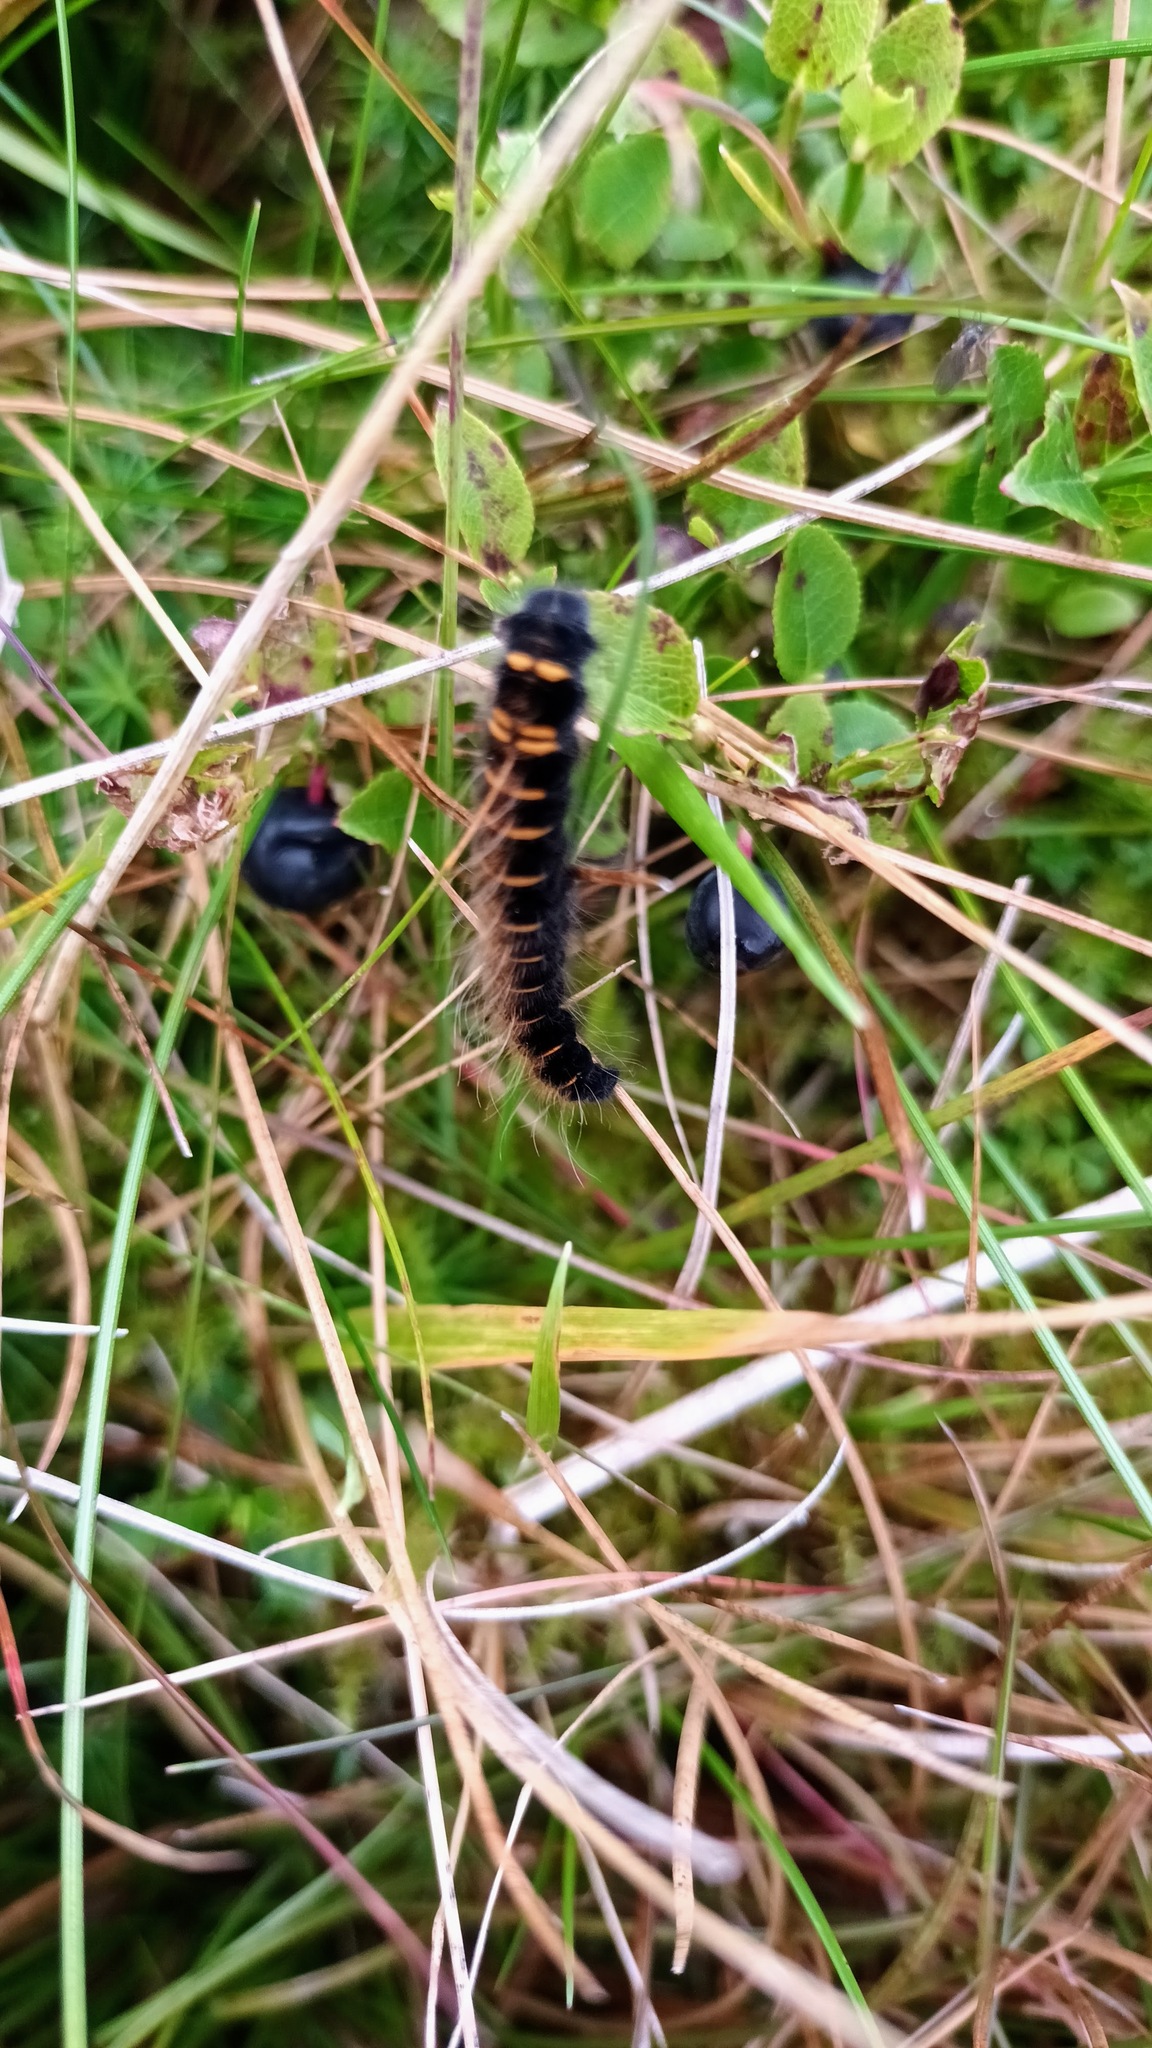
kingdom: Animalia
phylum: Arthropoda
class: Insecta
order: Lepidoptera
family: Lasiocampidae
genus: Macrothylacia
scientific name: Macrothylacia rubi
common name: Fox moth
